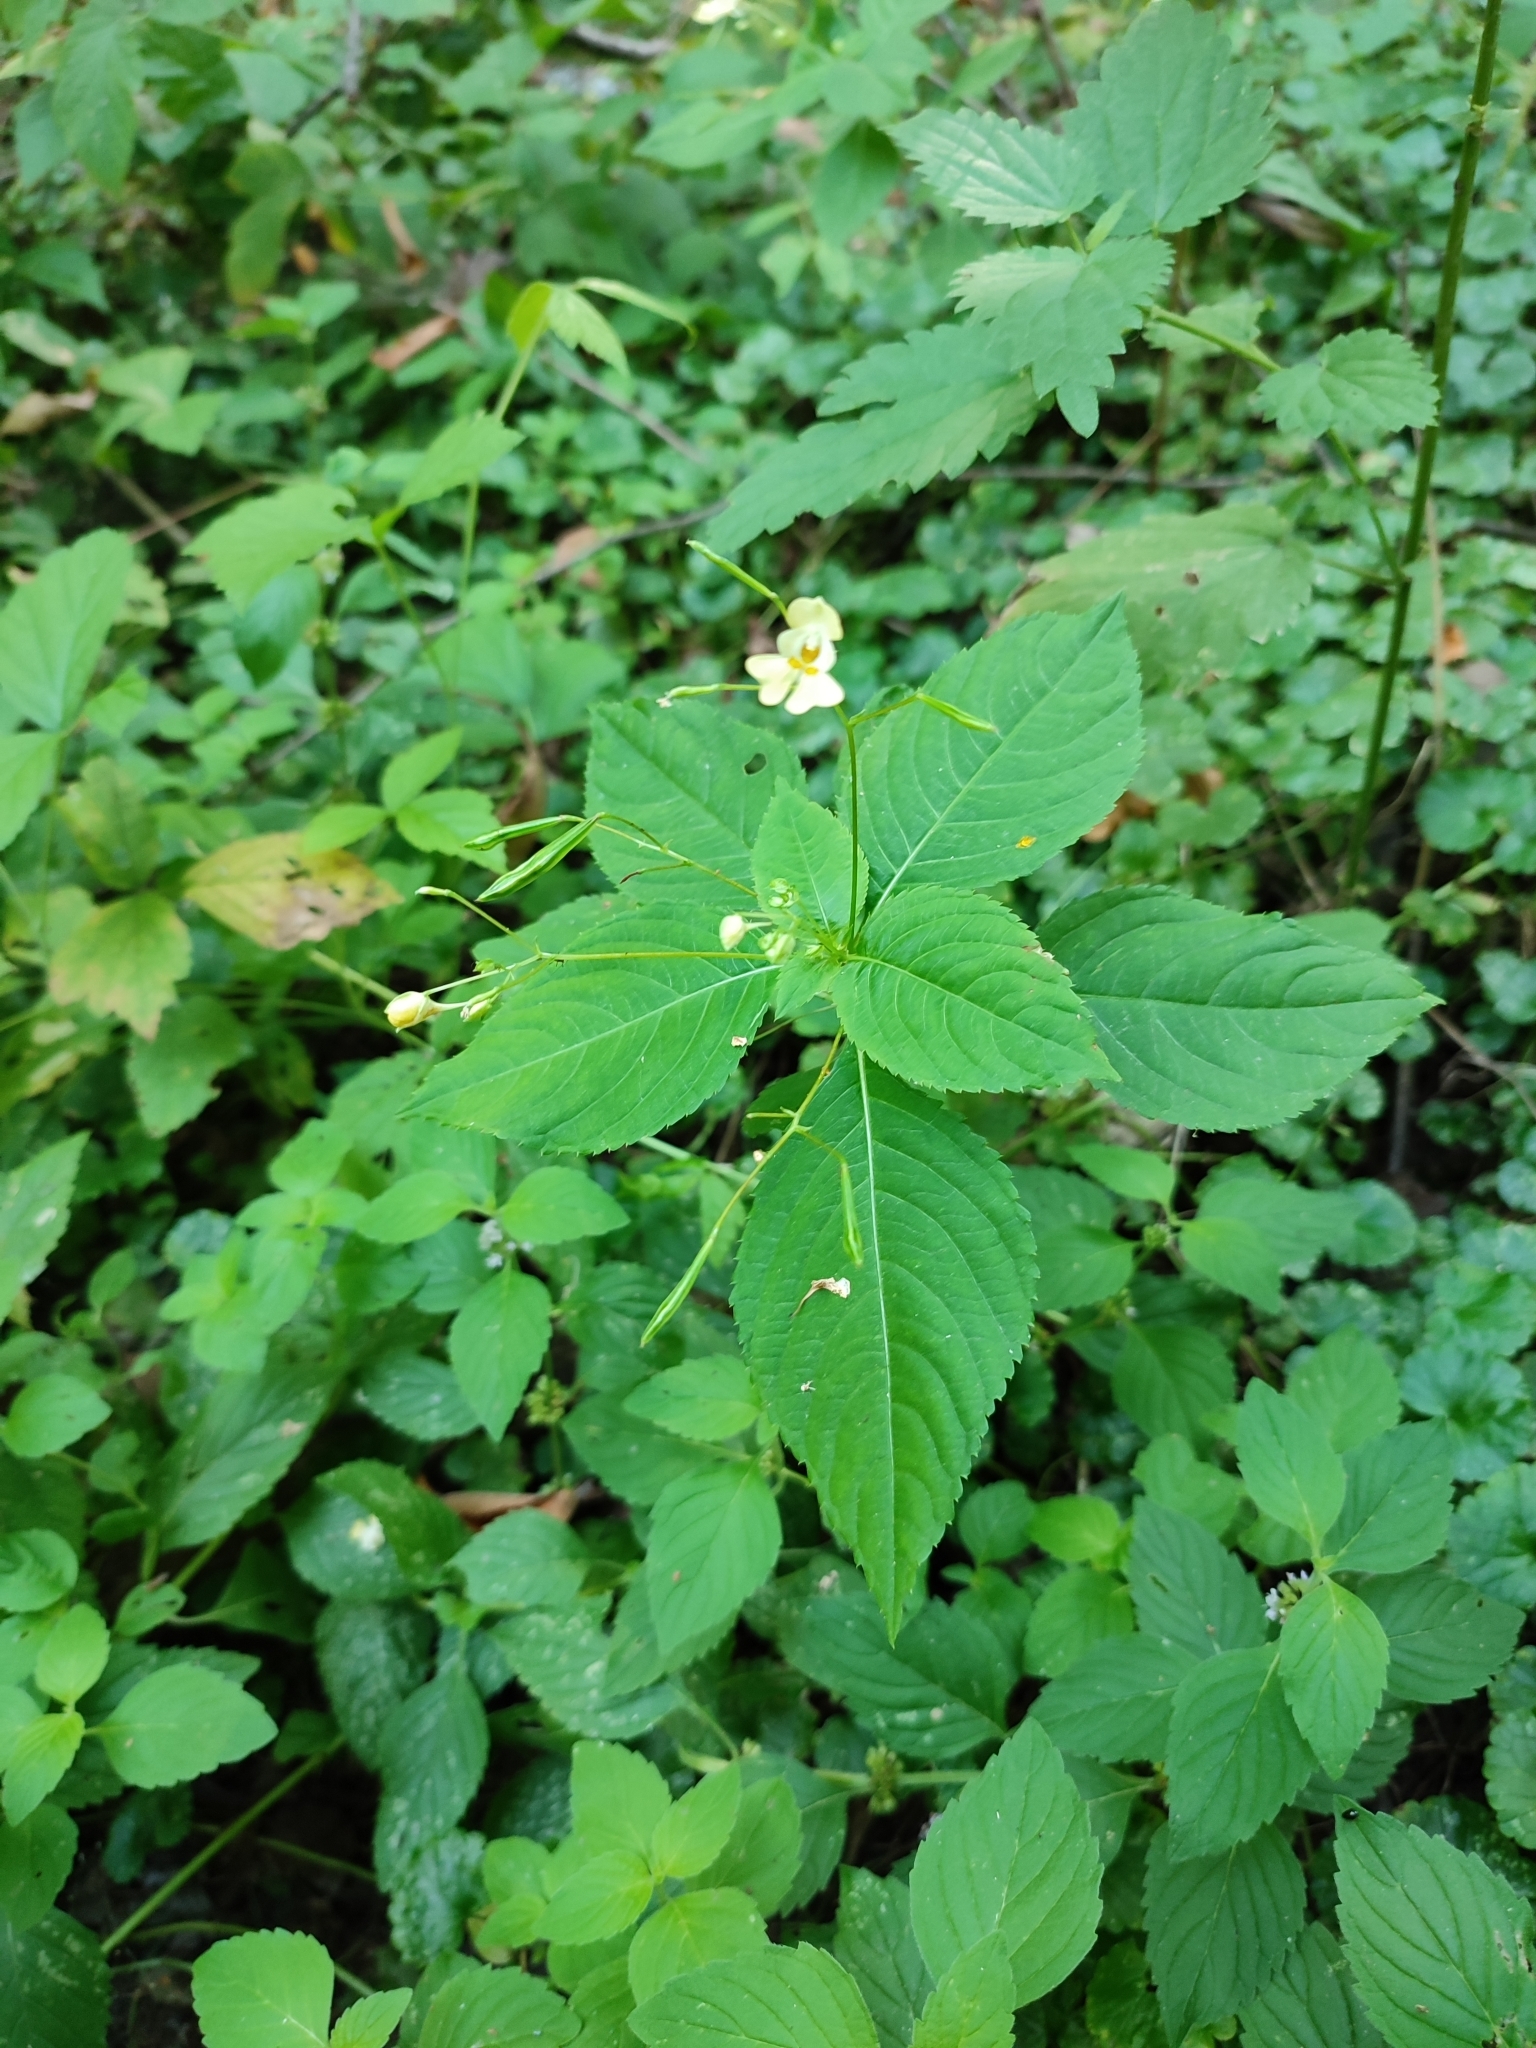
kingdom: Plantae
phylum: Tracheophyta
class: Magnoliopsida
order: Ericales
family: Balsaminaceae
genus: Impatiens
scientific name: Impatiens parviflora
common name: Small balsam
